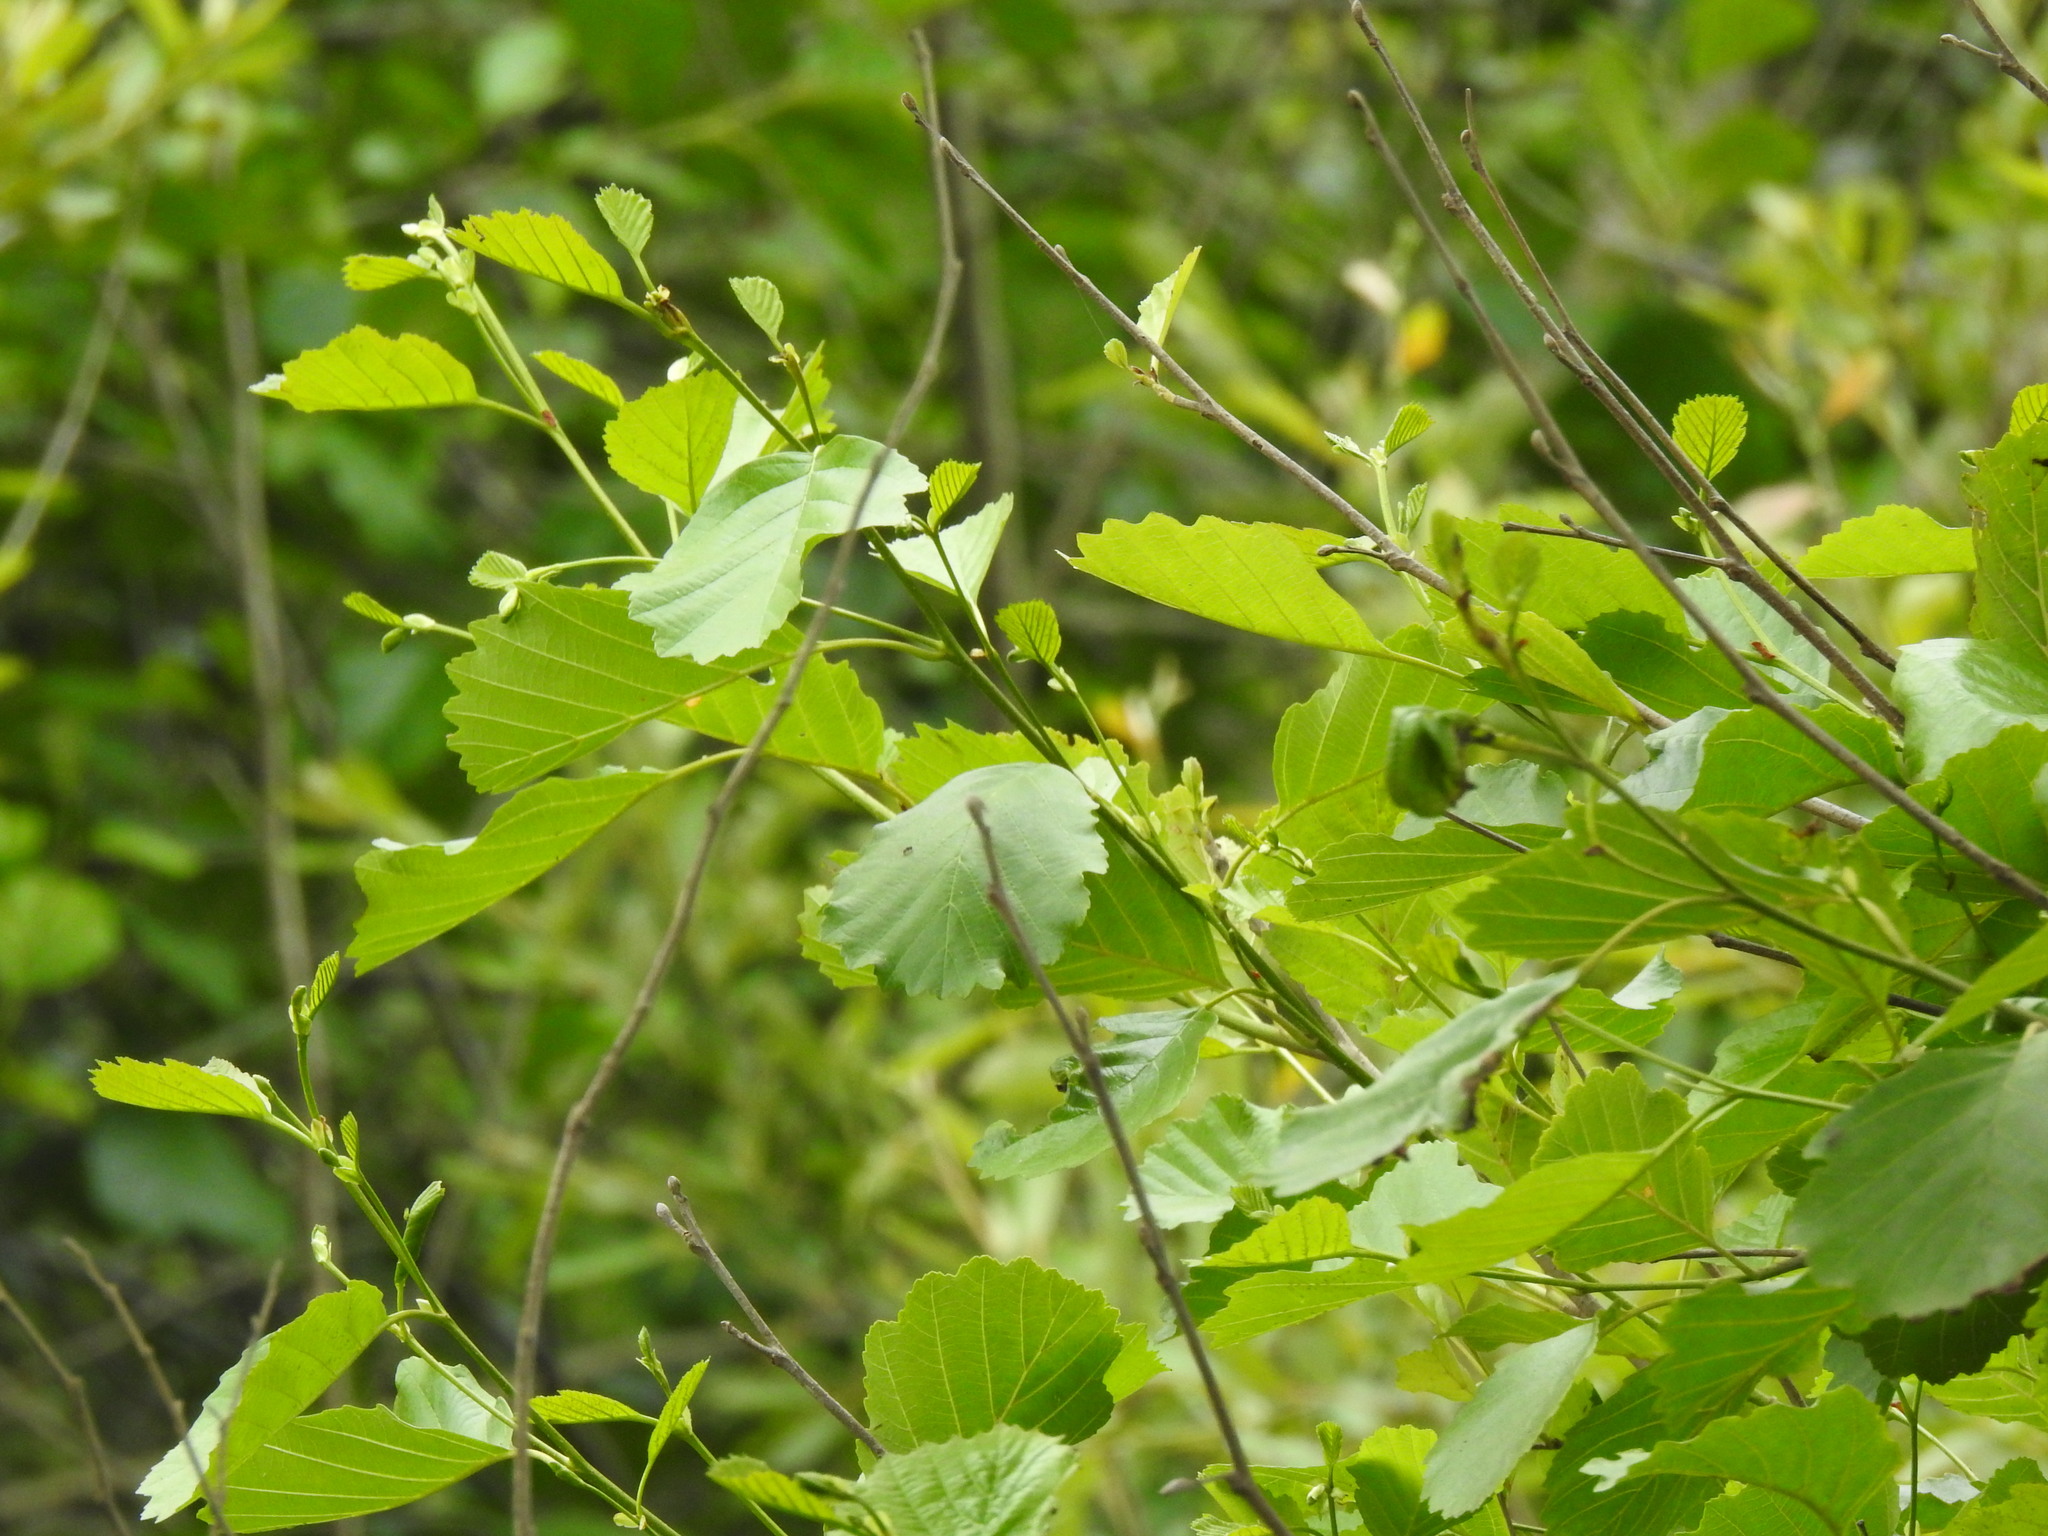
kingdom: Plantae
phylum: Tracheophyta
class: Magnoliopsida
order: Fagales
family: Betulaceae
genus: Alnus
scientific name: Alnus lusitanica
